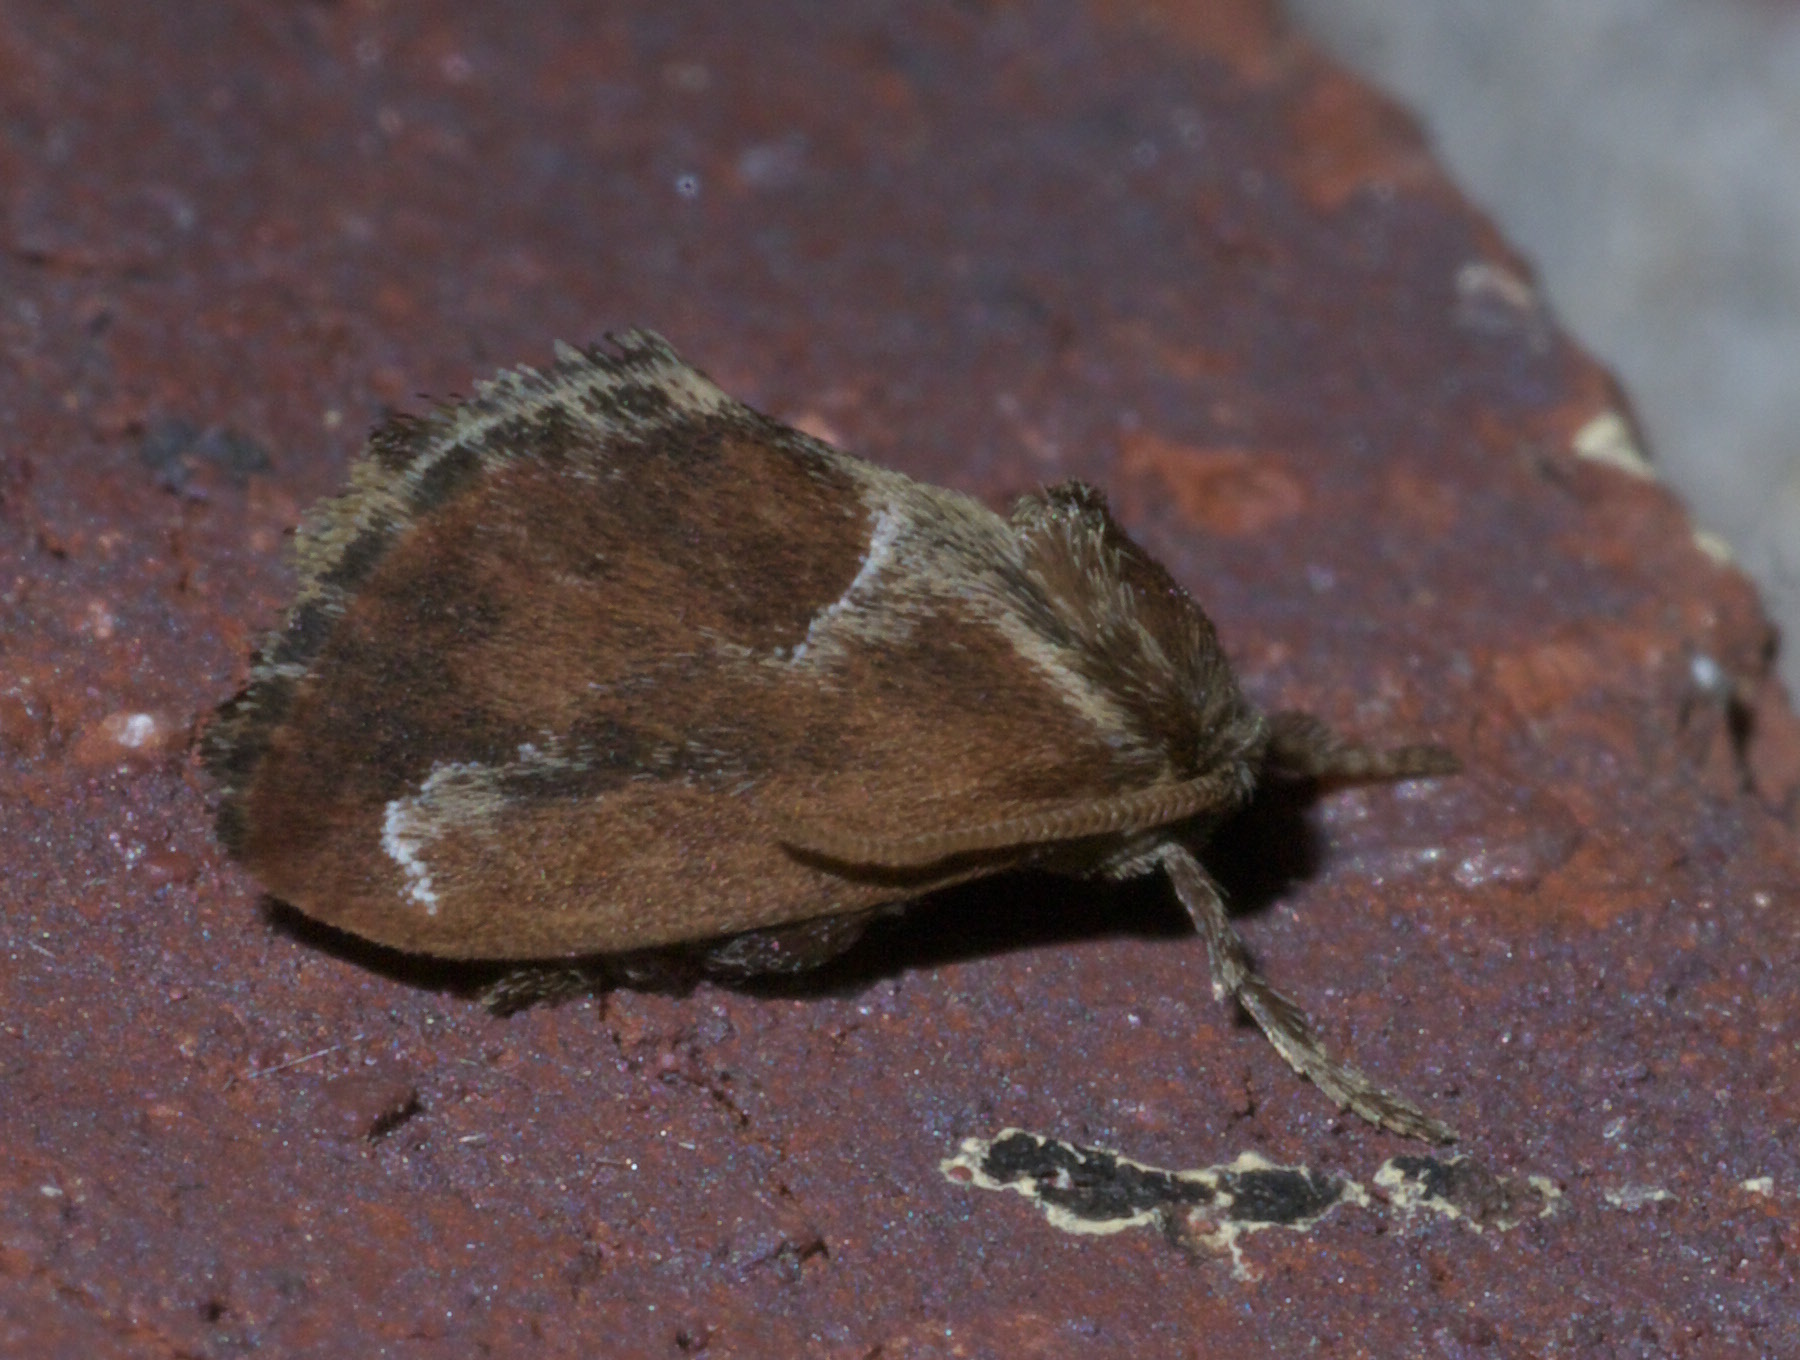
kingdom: Animalia
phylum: Arthropoda
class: Insecta
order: Lepidoptera
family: Limacodidae
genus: Adoneta
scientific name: Adoneta spinuloides
